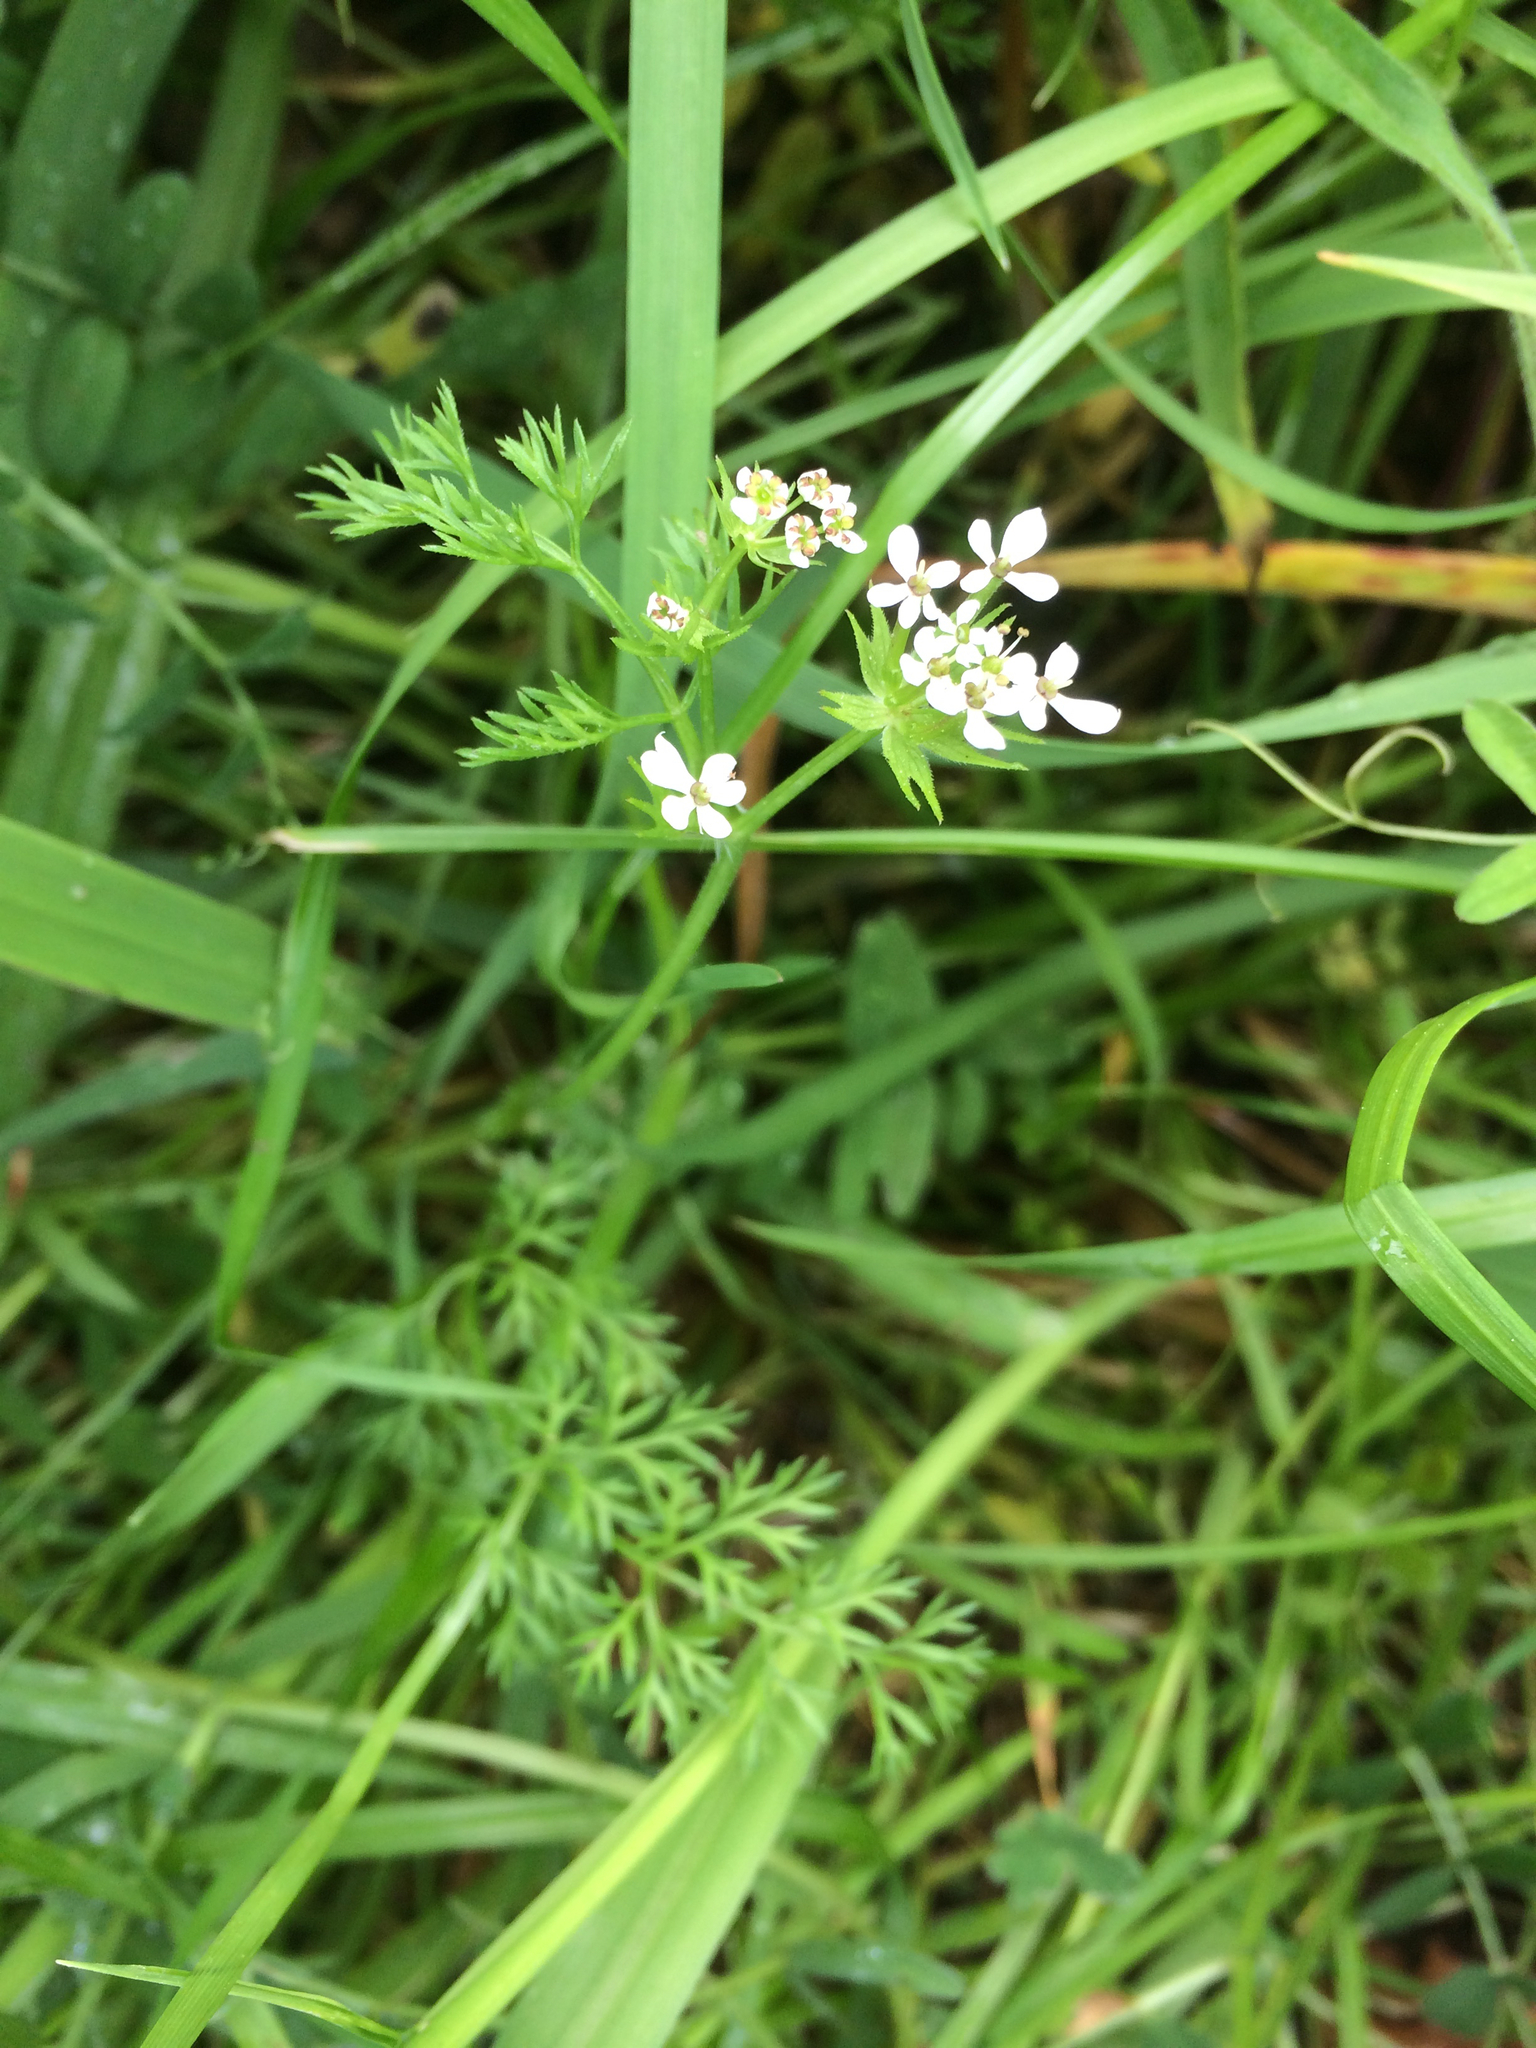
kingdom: Plantae
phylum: Tracheophyta
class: Magnoliopsida
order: Apiales
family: Apiaceae
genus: Scandix
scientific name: Scandix pecten-veneris
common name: Shepherd's-needle
